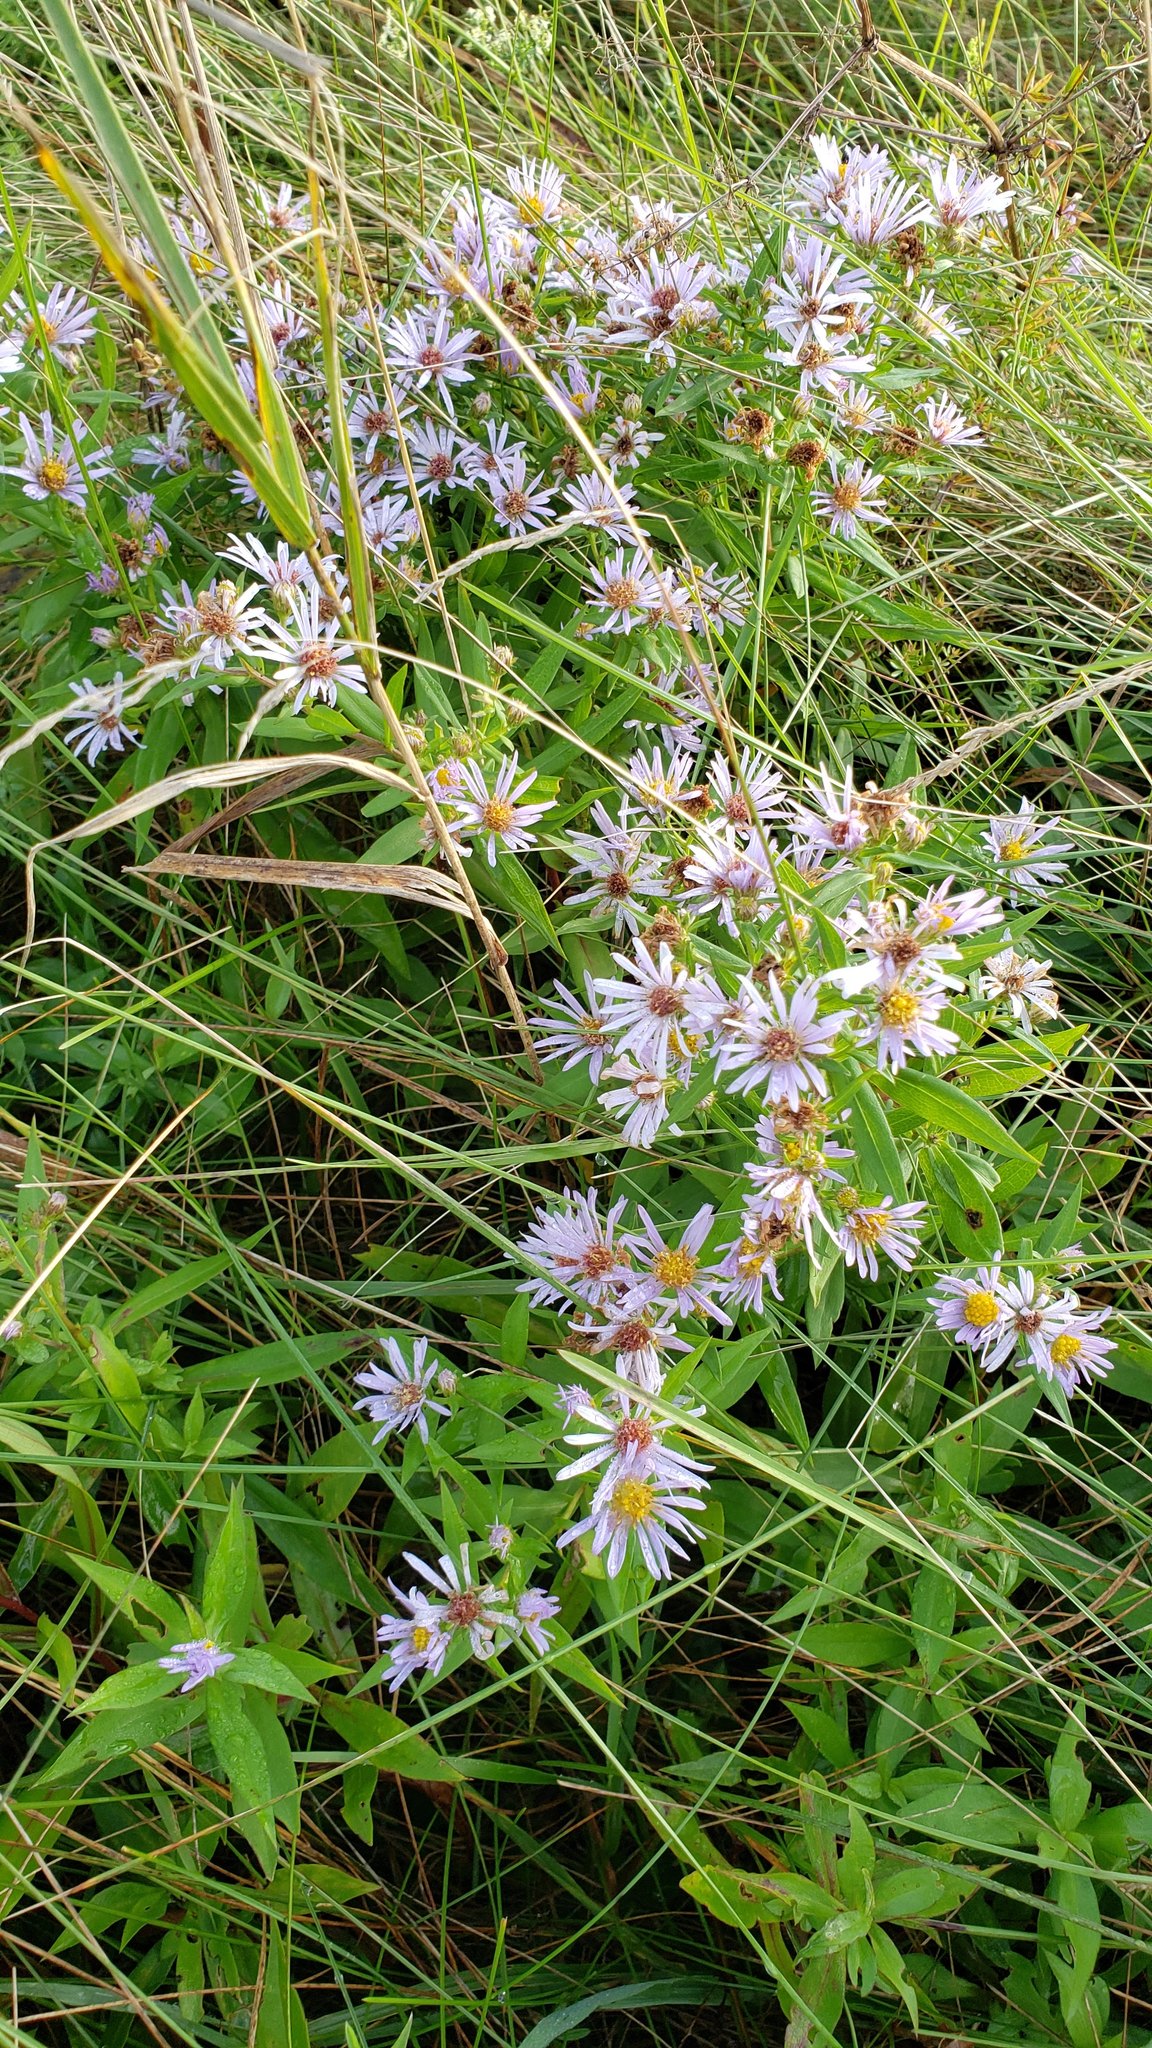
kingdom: Plantae
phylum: Tracheophyta
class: Magnoliopsida
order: Asterales
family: Asteraceae
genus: Symphyotrichum
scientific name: Symphyotrichum novi-belgii
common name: Michaelmas daisy
